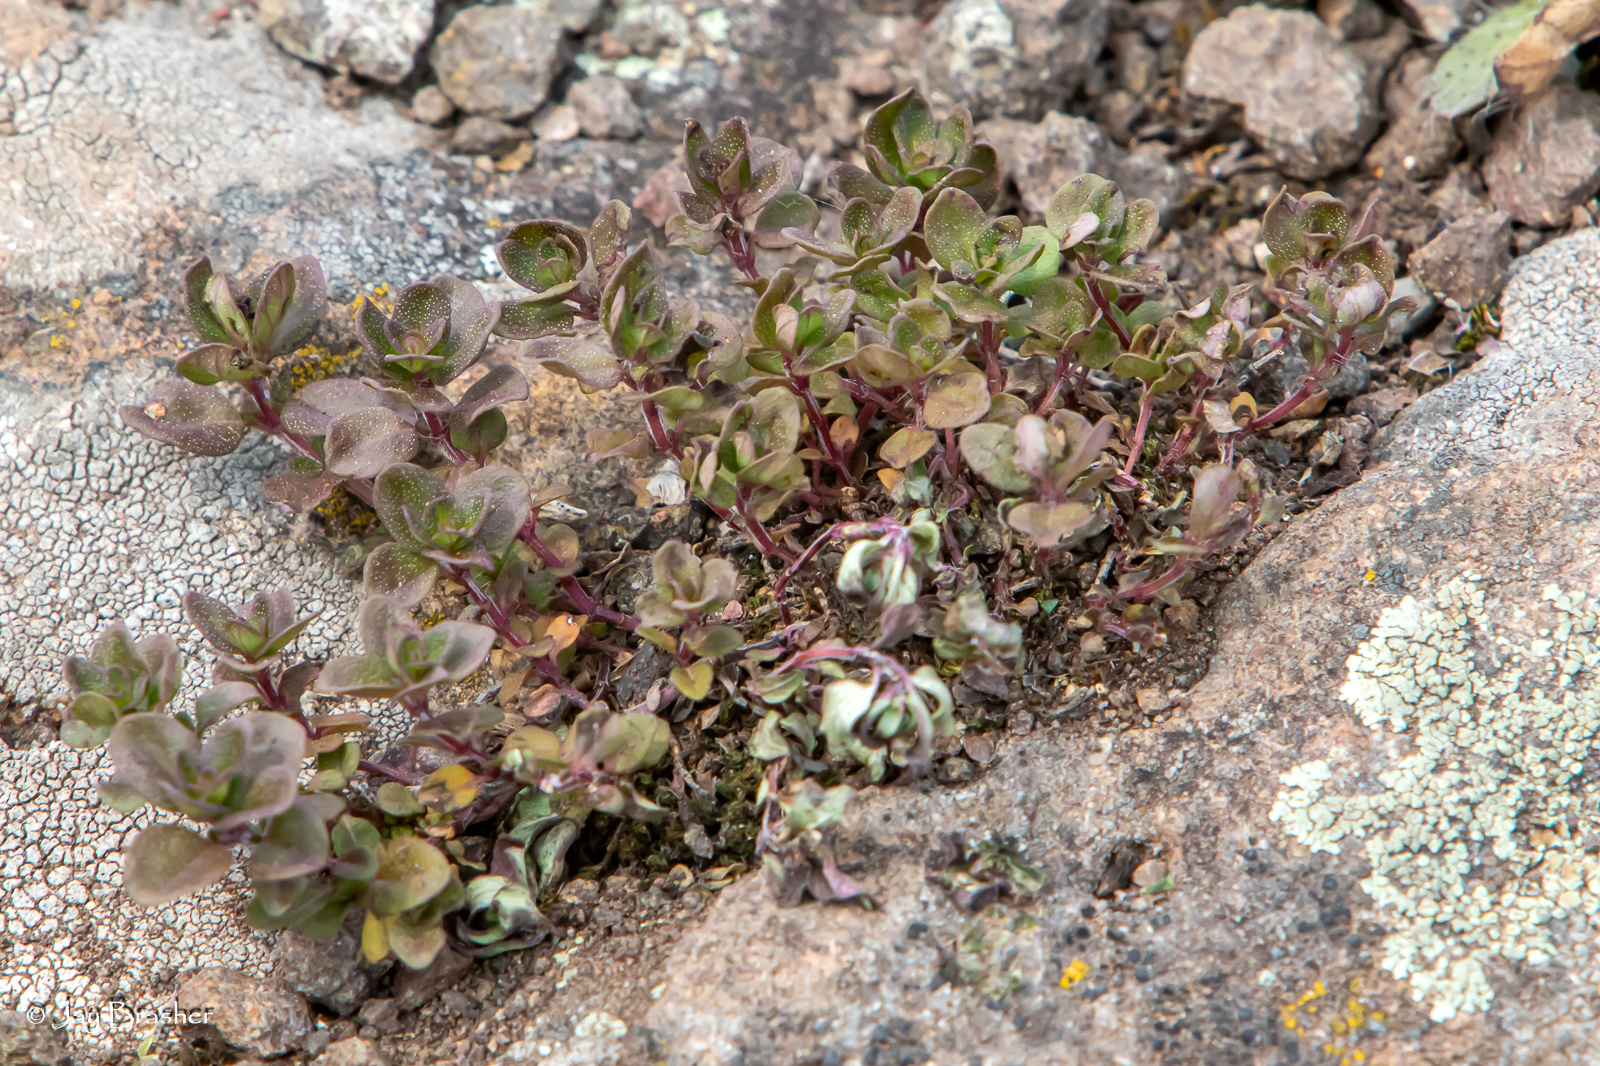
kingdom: Plantae
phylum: Tracheophyta
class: Magnoliopsida
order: Lamiales
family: Lamiaceae
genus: Thymus
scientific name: Thymus pulegioides
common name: Large thyme
